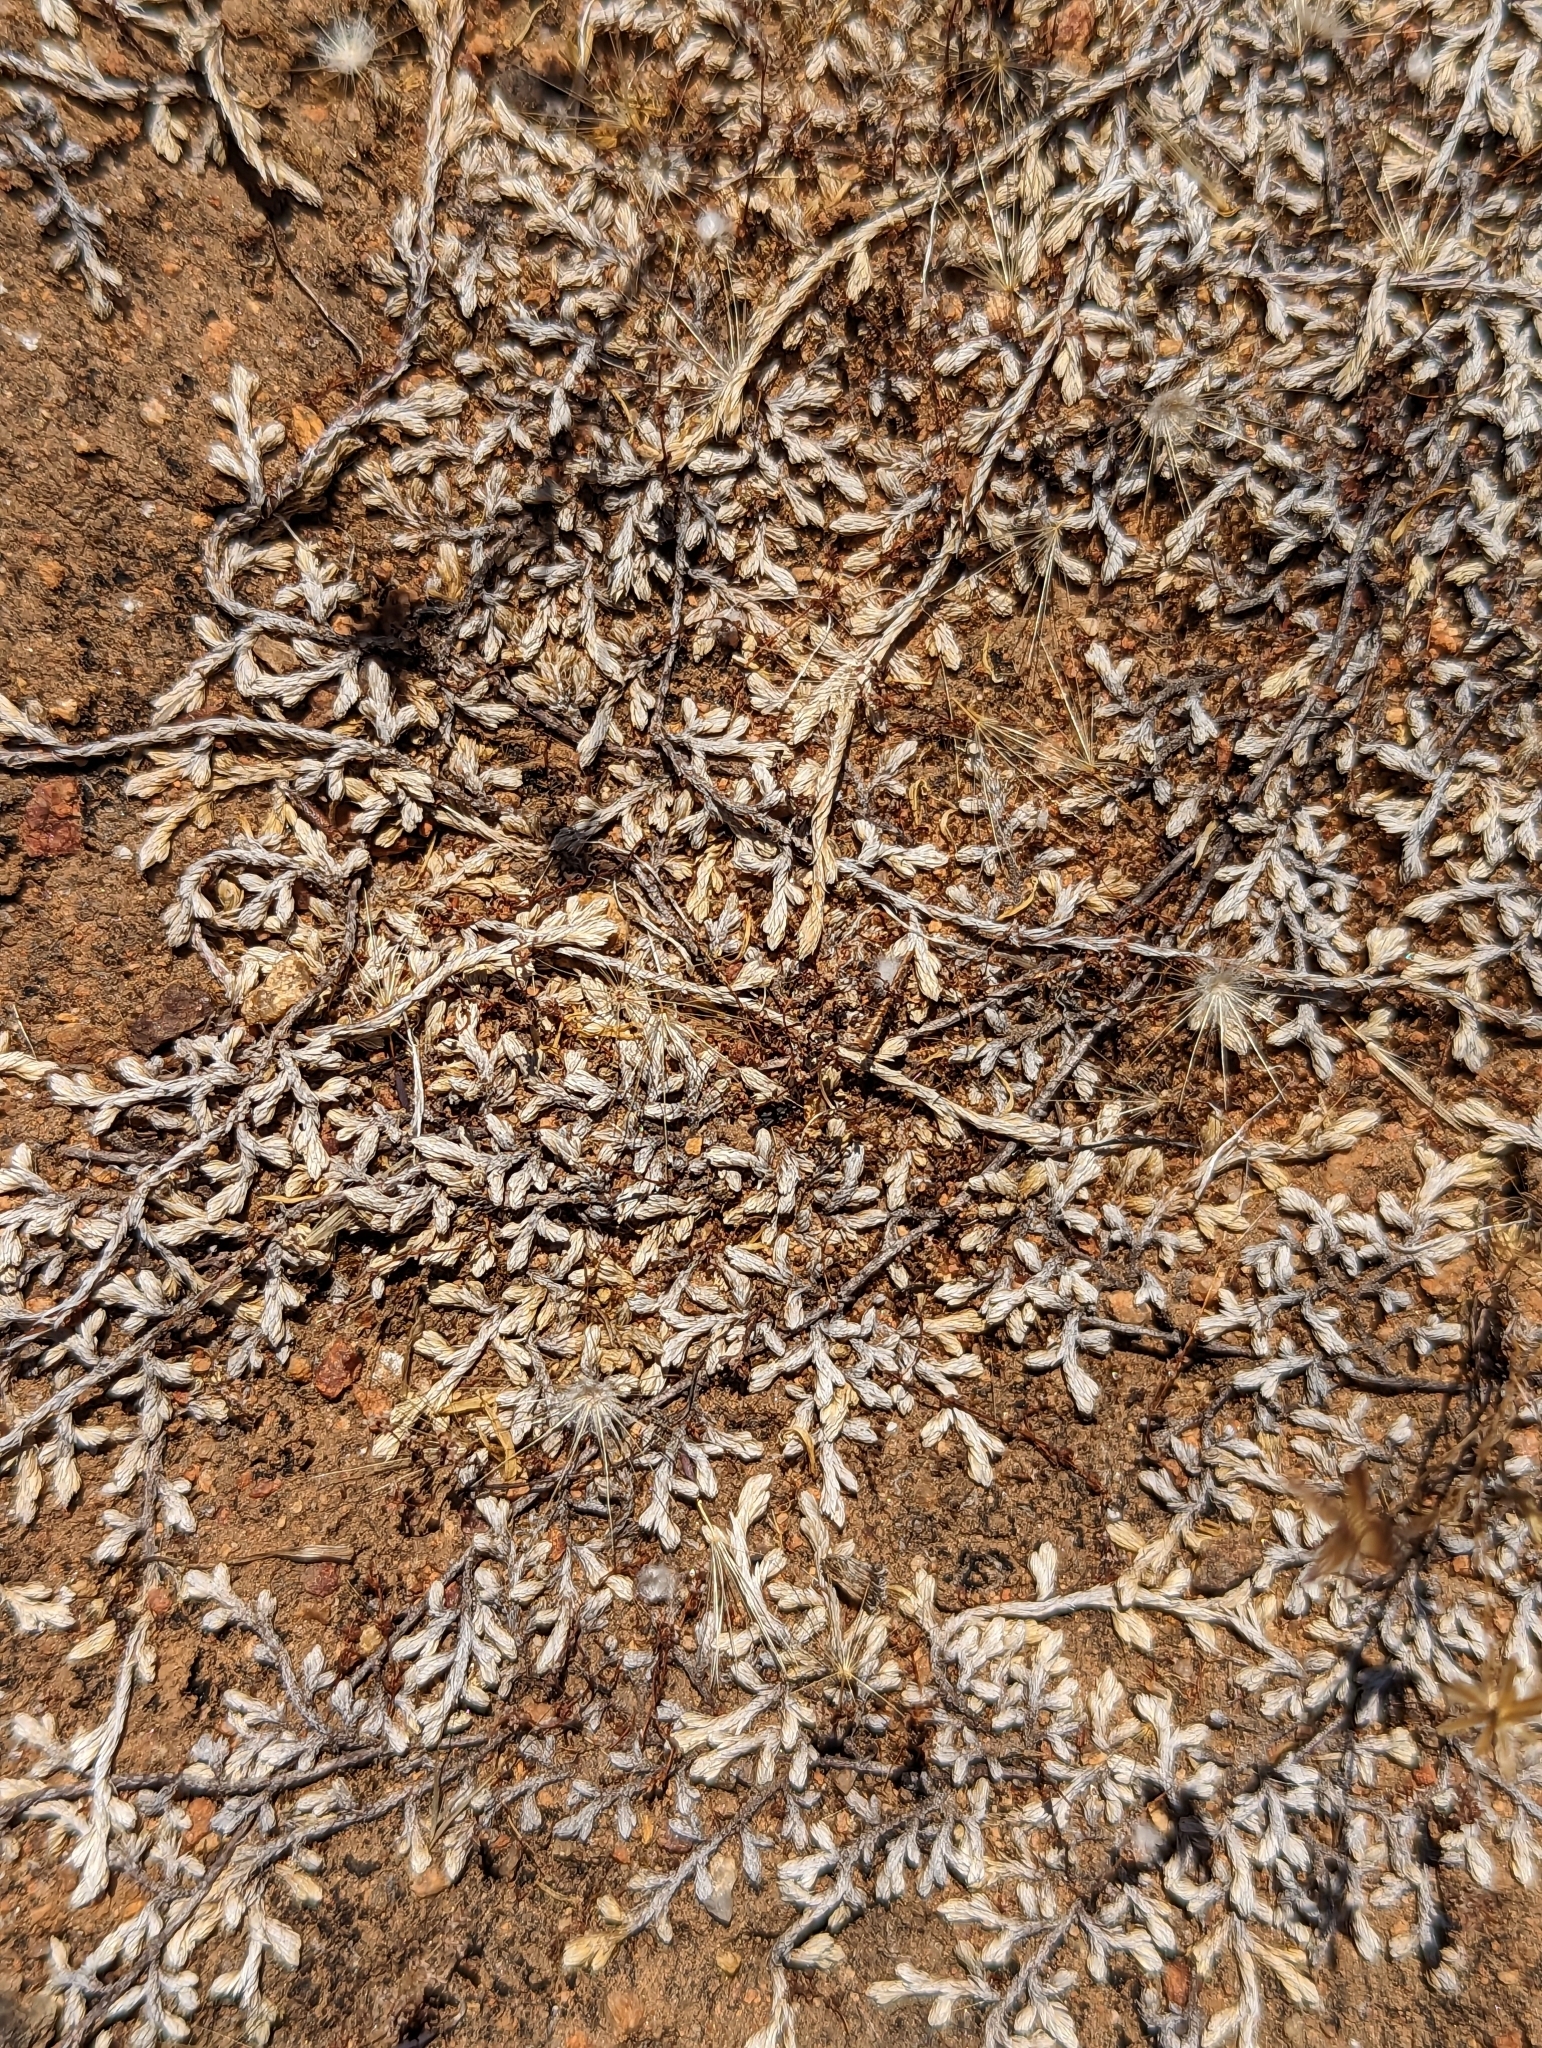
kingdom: Plantae
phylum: Tracheophyta
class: Lycopodiopsida
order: Selaginellales
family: Selaginellaceae
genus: Selaginella
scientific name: Selaginella cinerascens
